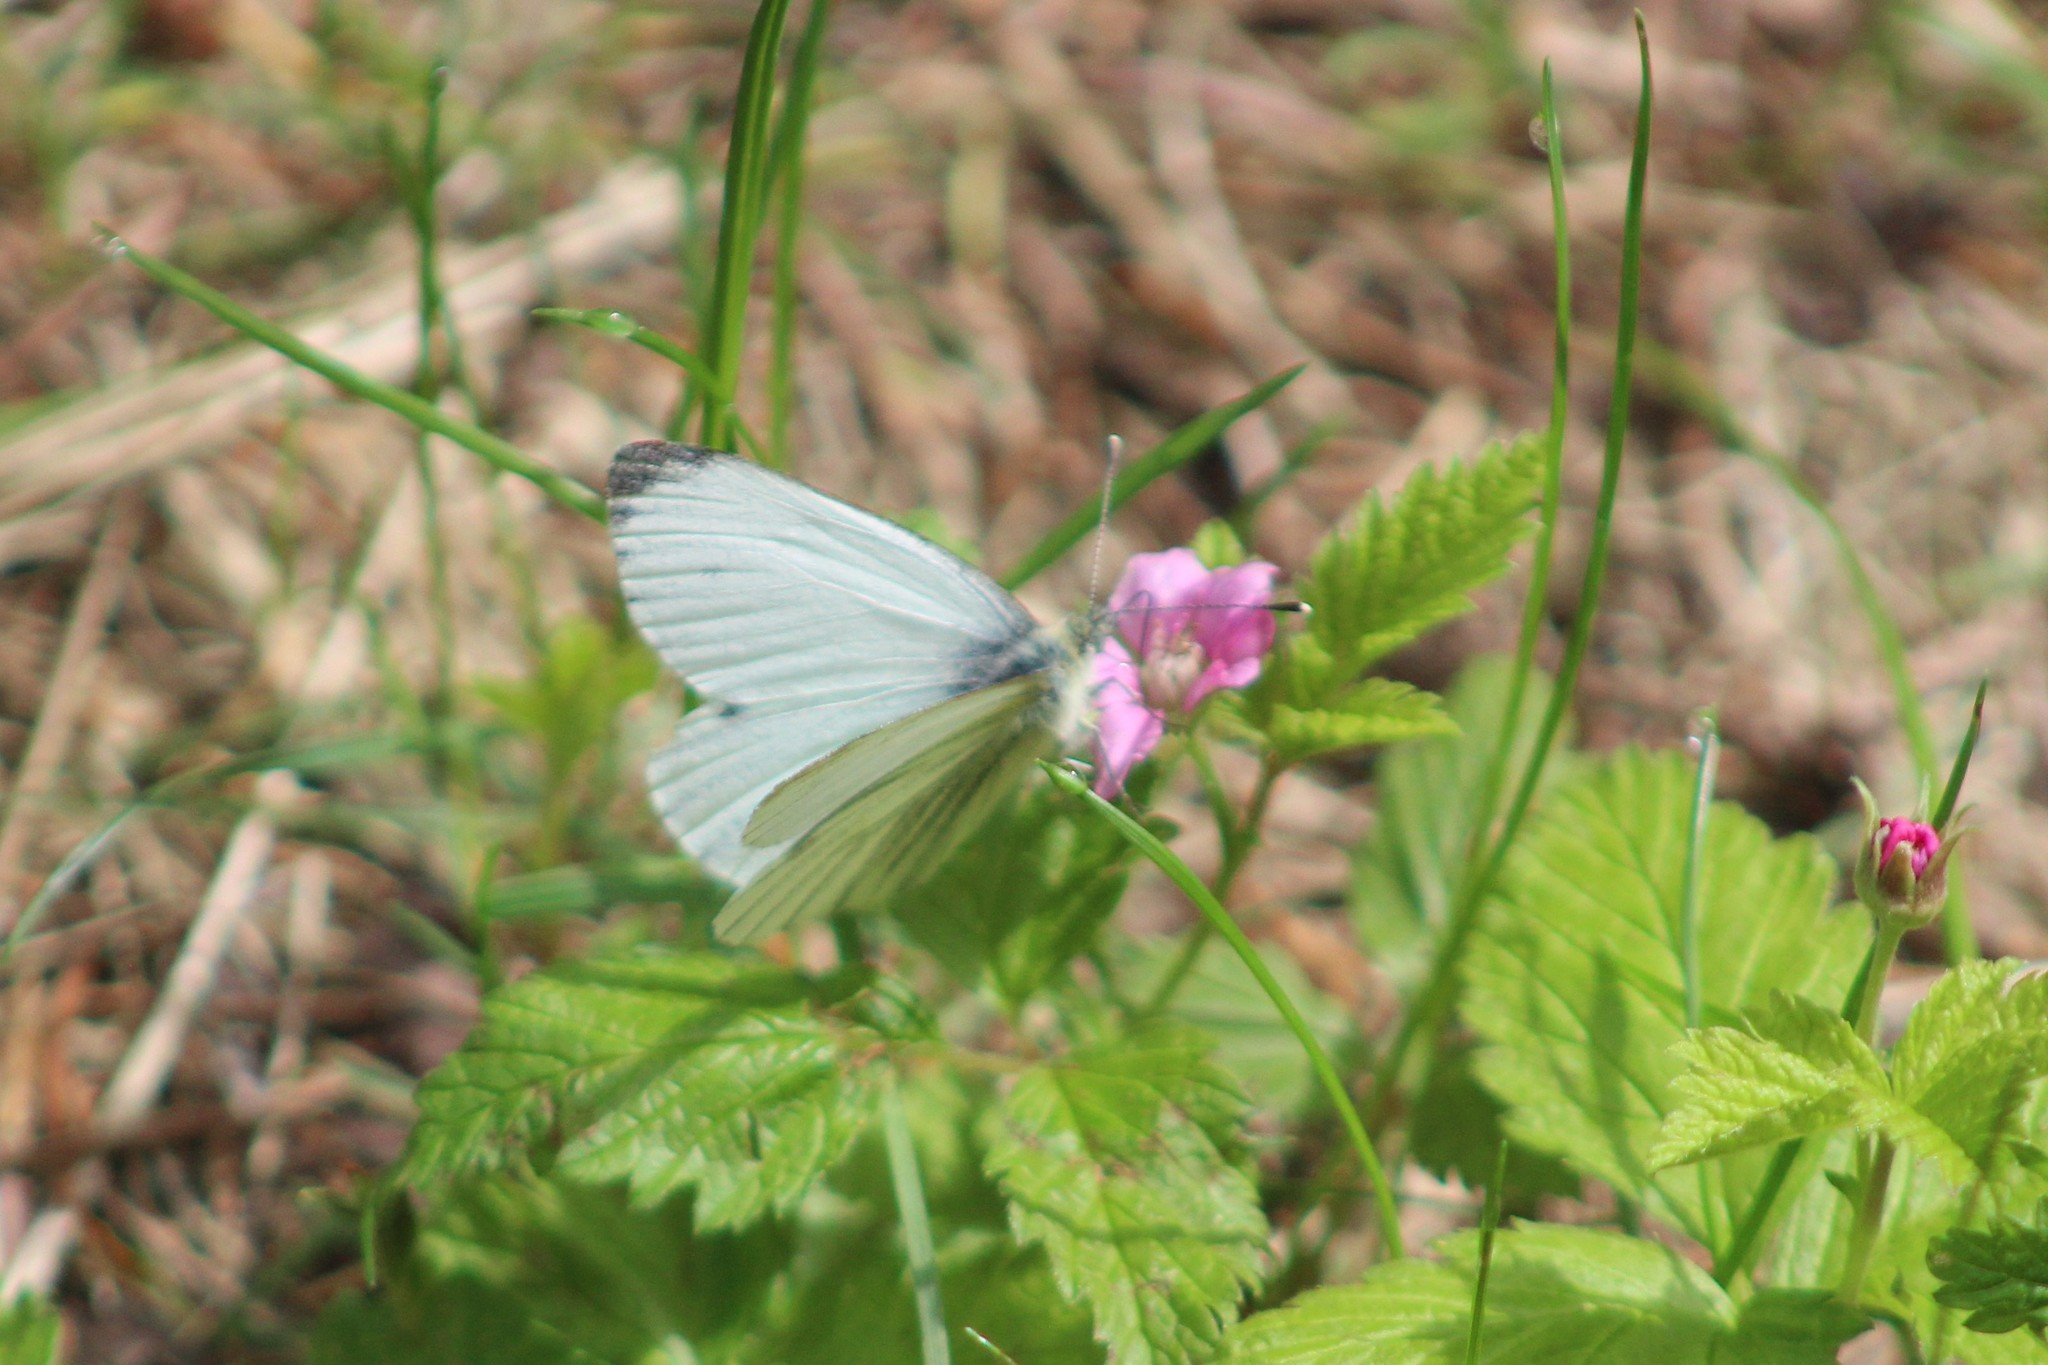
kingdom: Animalia
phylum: Arthropoda
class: Insecta
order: Lepidoptera
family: Pieridae
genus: Pieris
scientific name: Pieris napi
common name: Green-veined white
